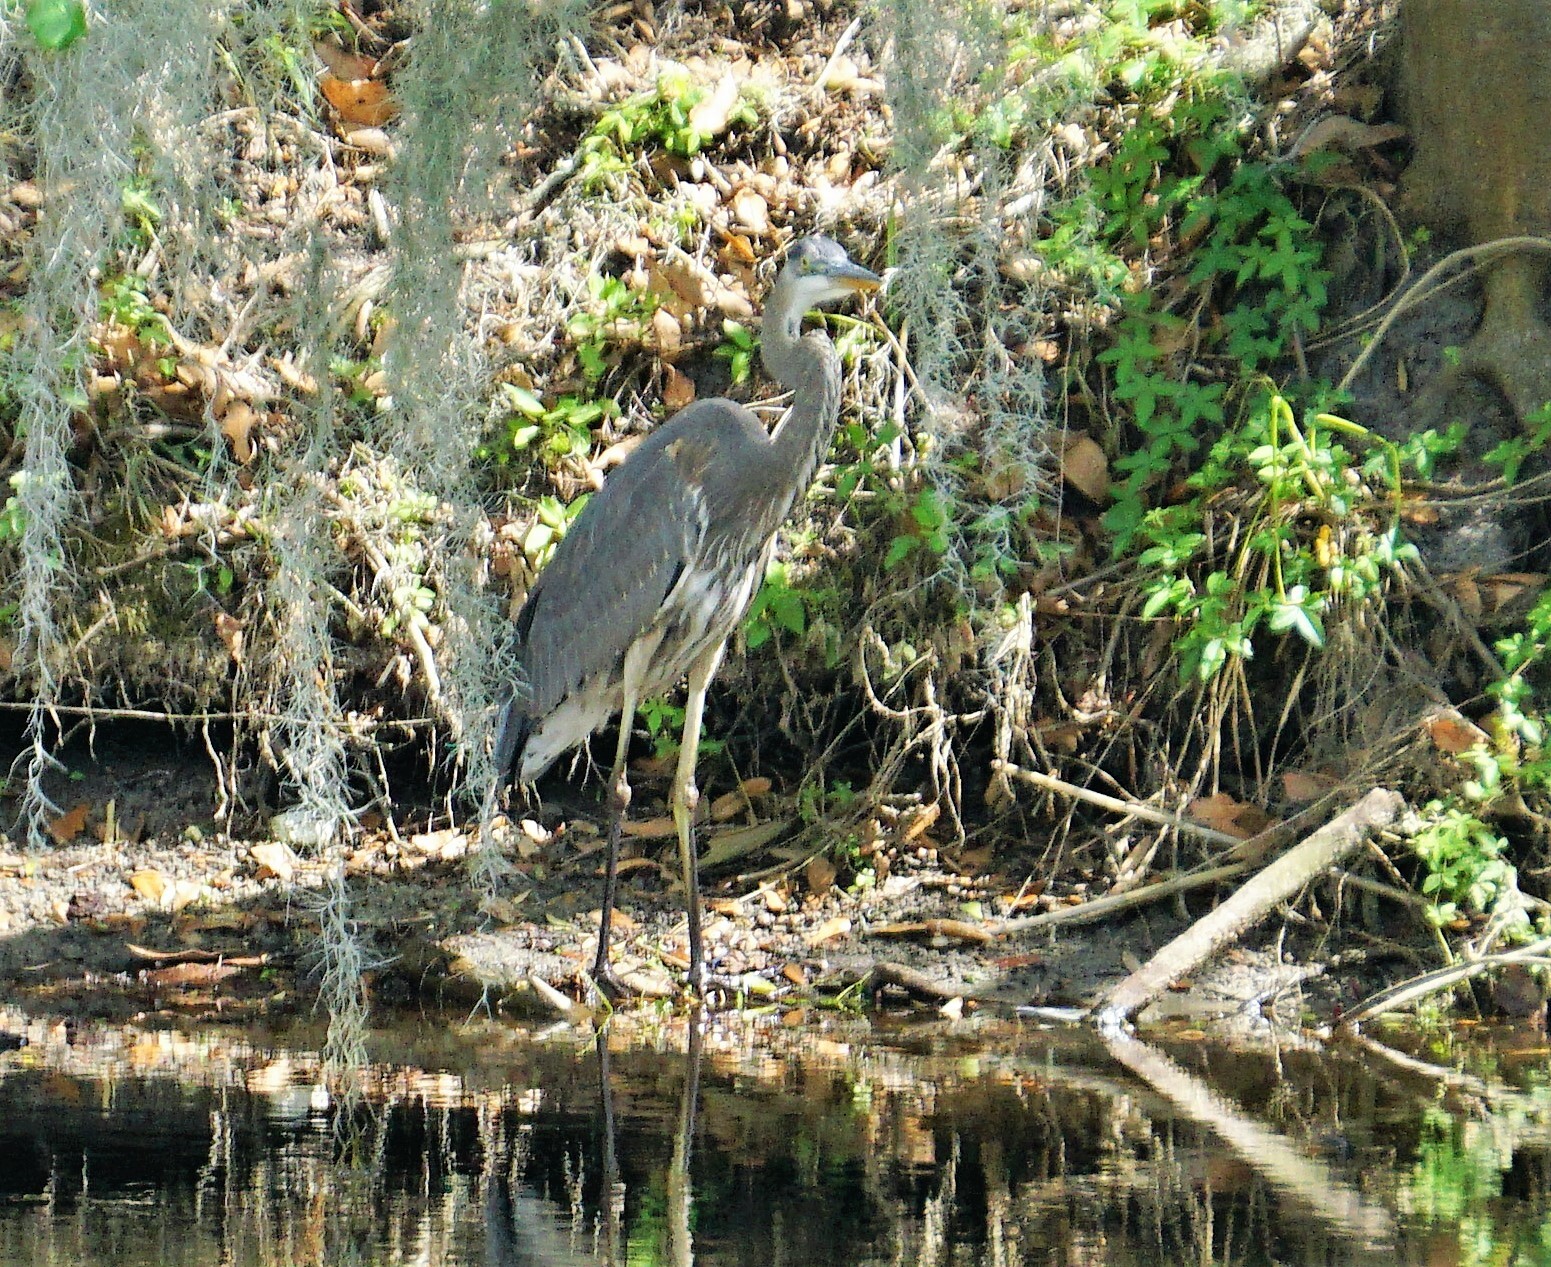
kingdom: Animalia
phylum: Chordata
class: Aves
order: Pelecaniformes
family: Ardeidae
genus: Ardea
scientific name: Ardea herodias
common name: Great blue heron
